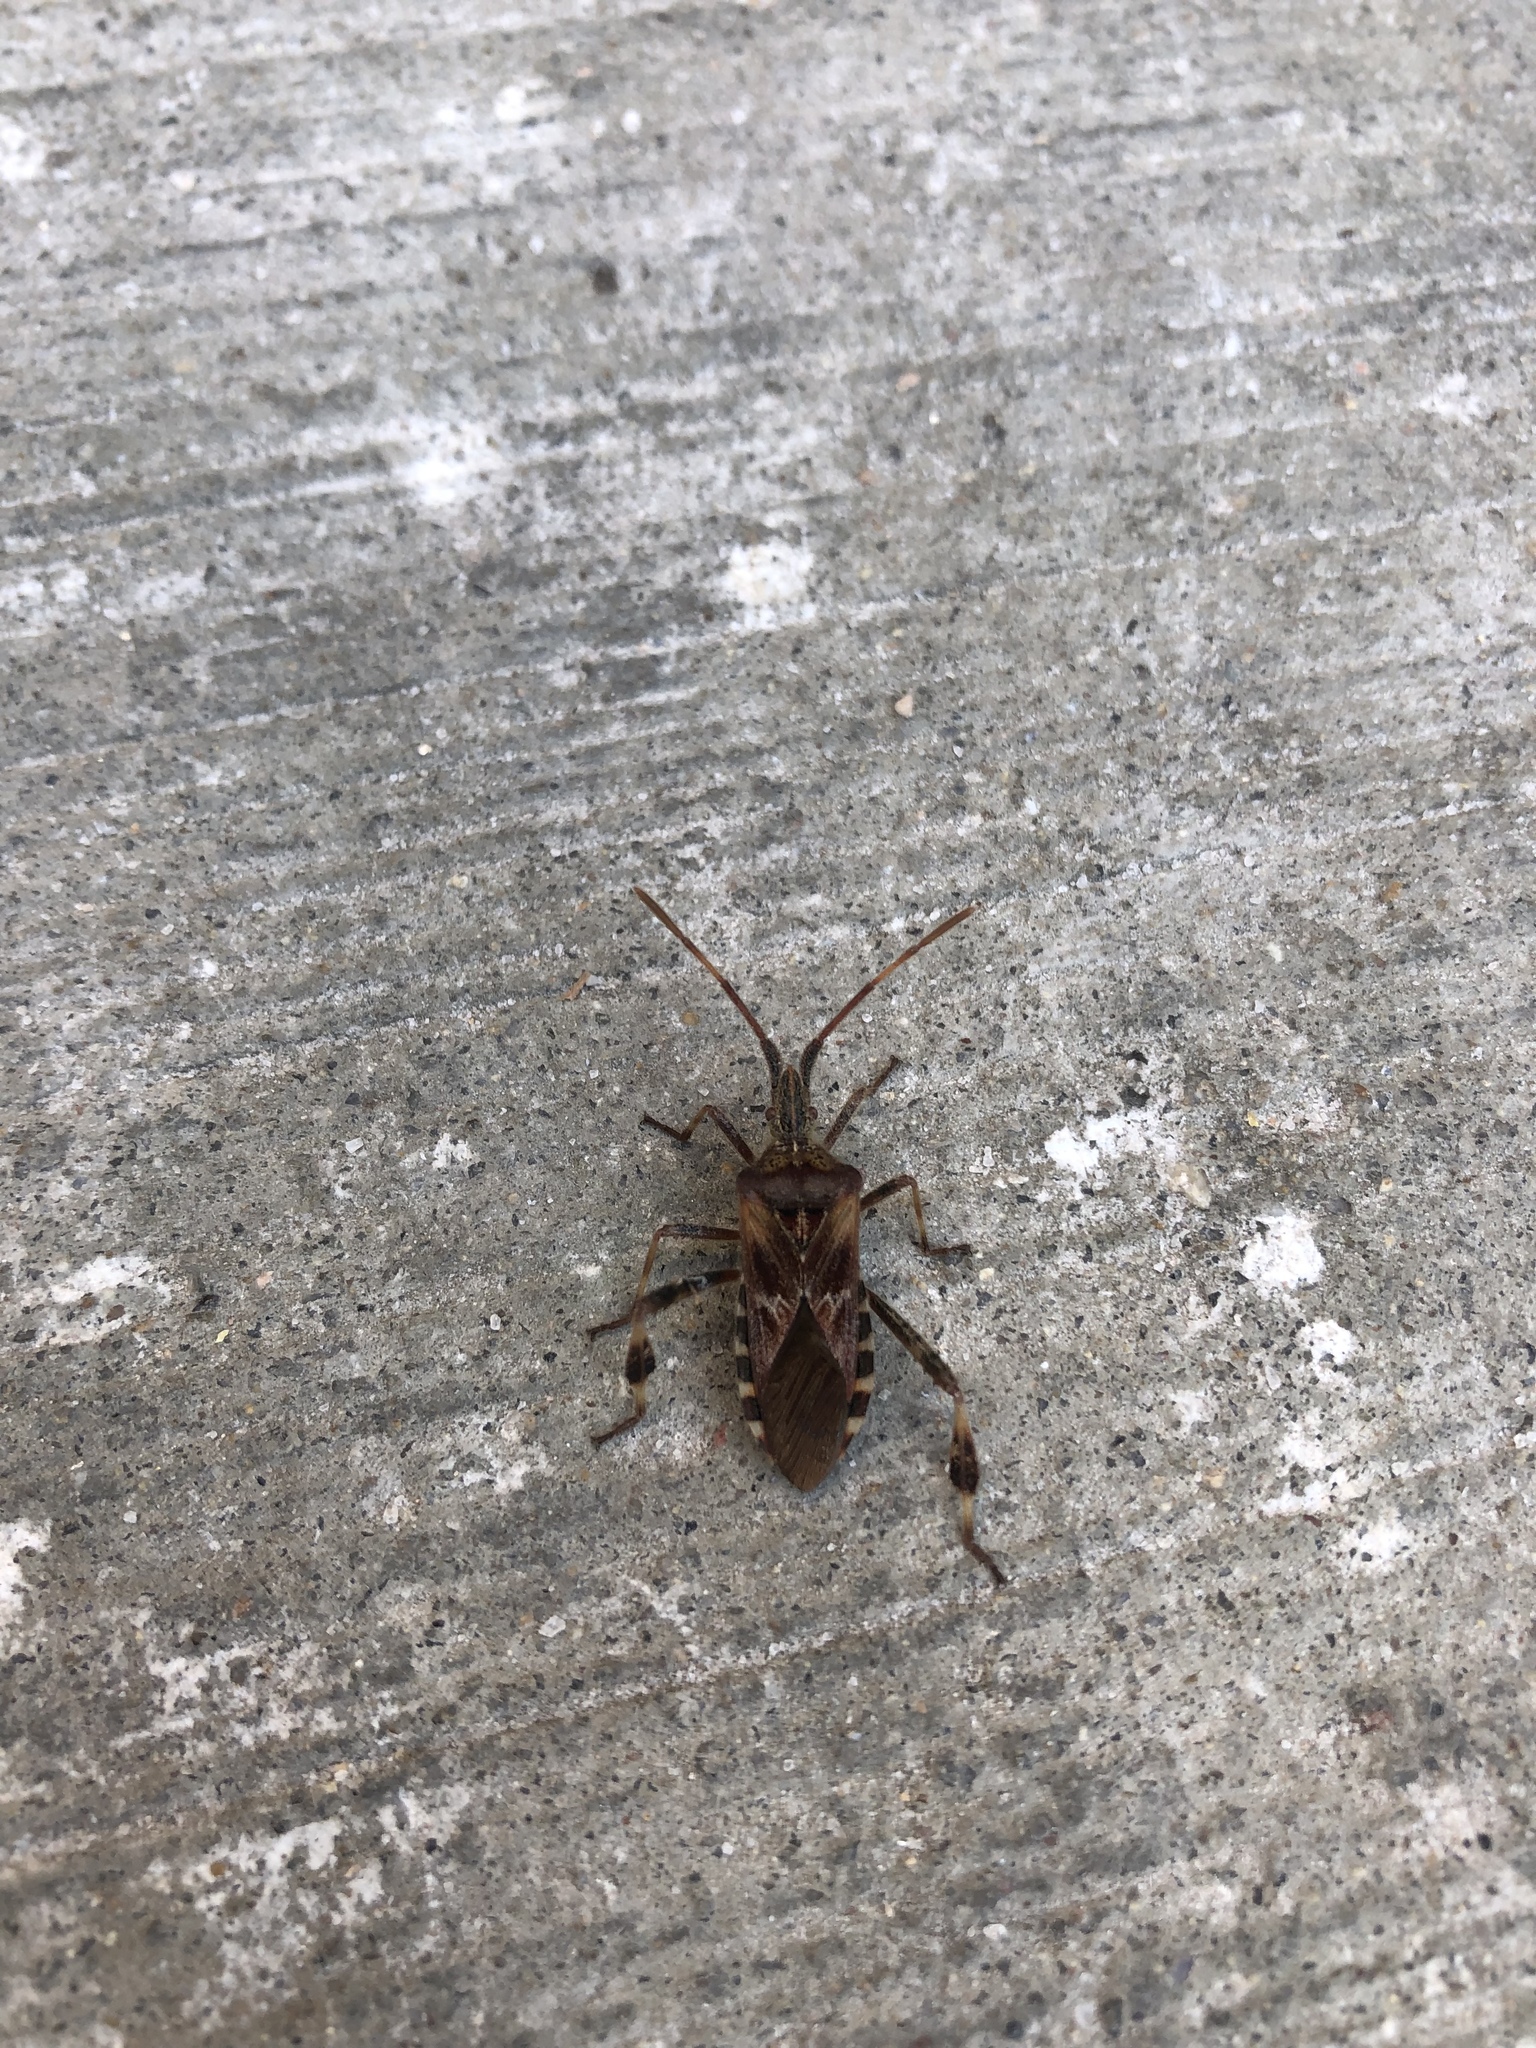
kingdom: Animalia
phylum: Arthropoda
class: Insecta
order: Hemiptera
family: Coreidae
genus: Leptoglossus
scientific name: Leptoglossus occidentalis
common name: Western conifer-seed bug
